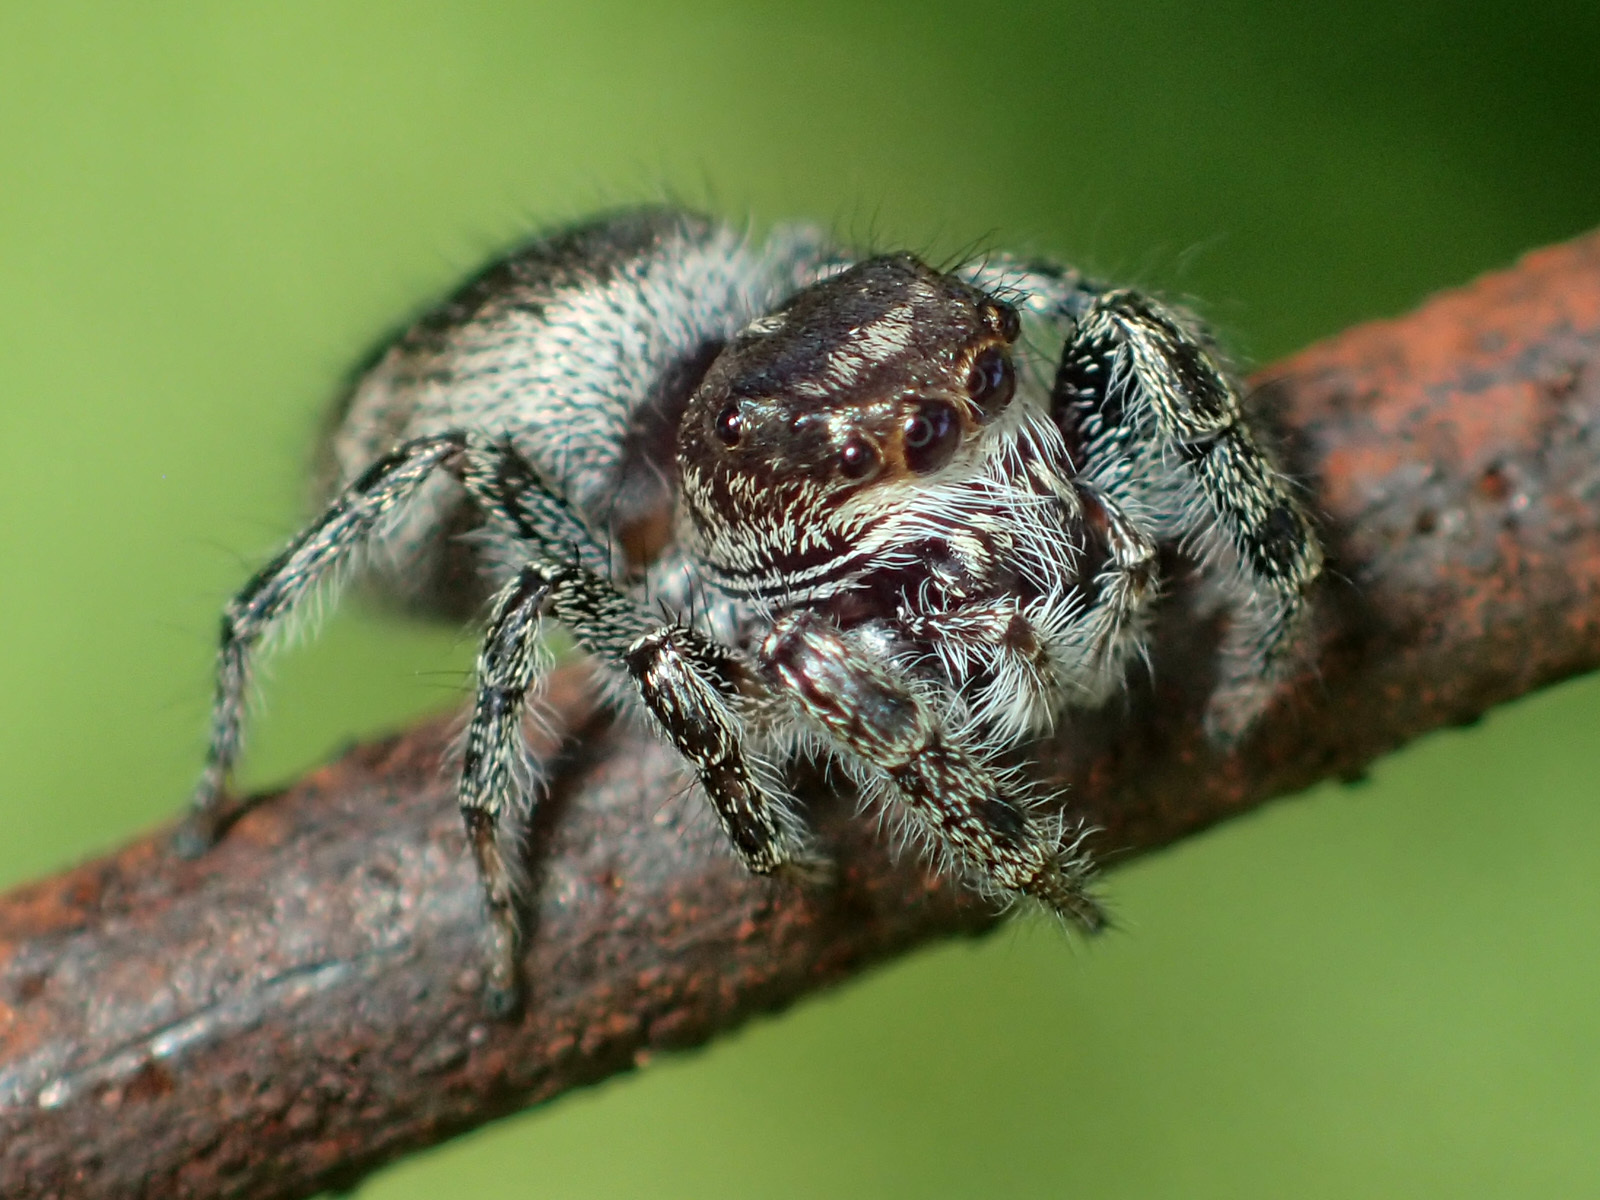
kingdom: Animalia
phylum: Arthropoda
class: Arachnida
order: Araneae
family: Salticidae
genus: Eris
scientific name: Eris militaris
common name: Bronze jumper
